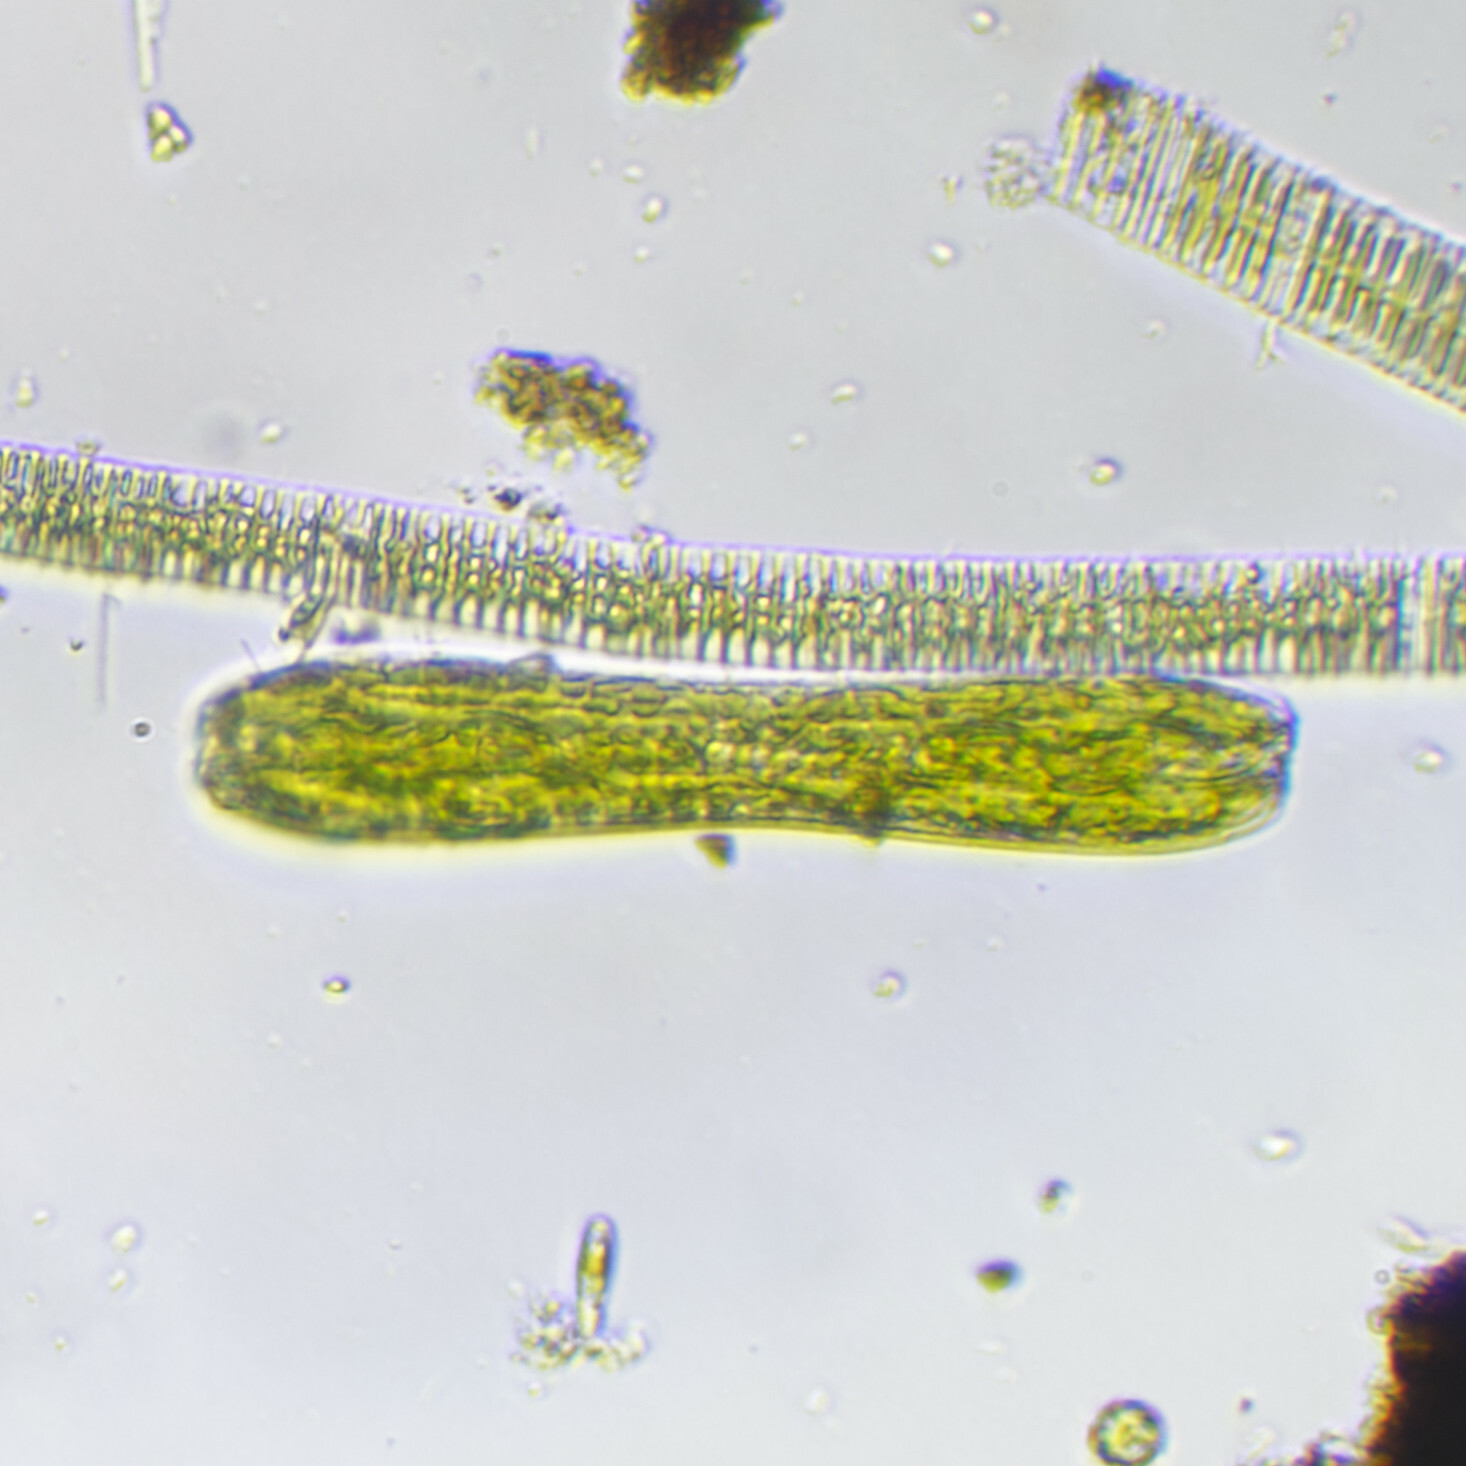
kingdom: Chromista
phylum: Ochrophyta
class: Bacillariophyceae
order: Surirellales
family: Surirellaceae
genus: Surirella
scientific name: Surirella librile
